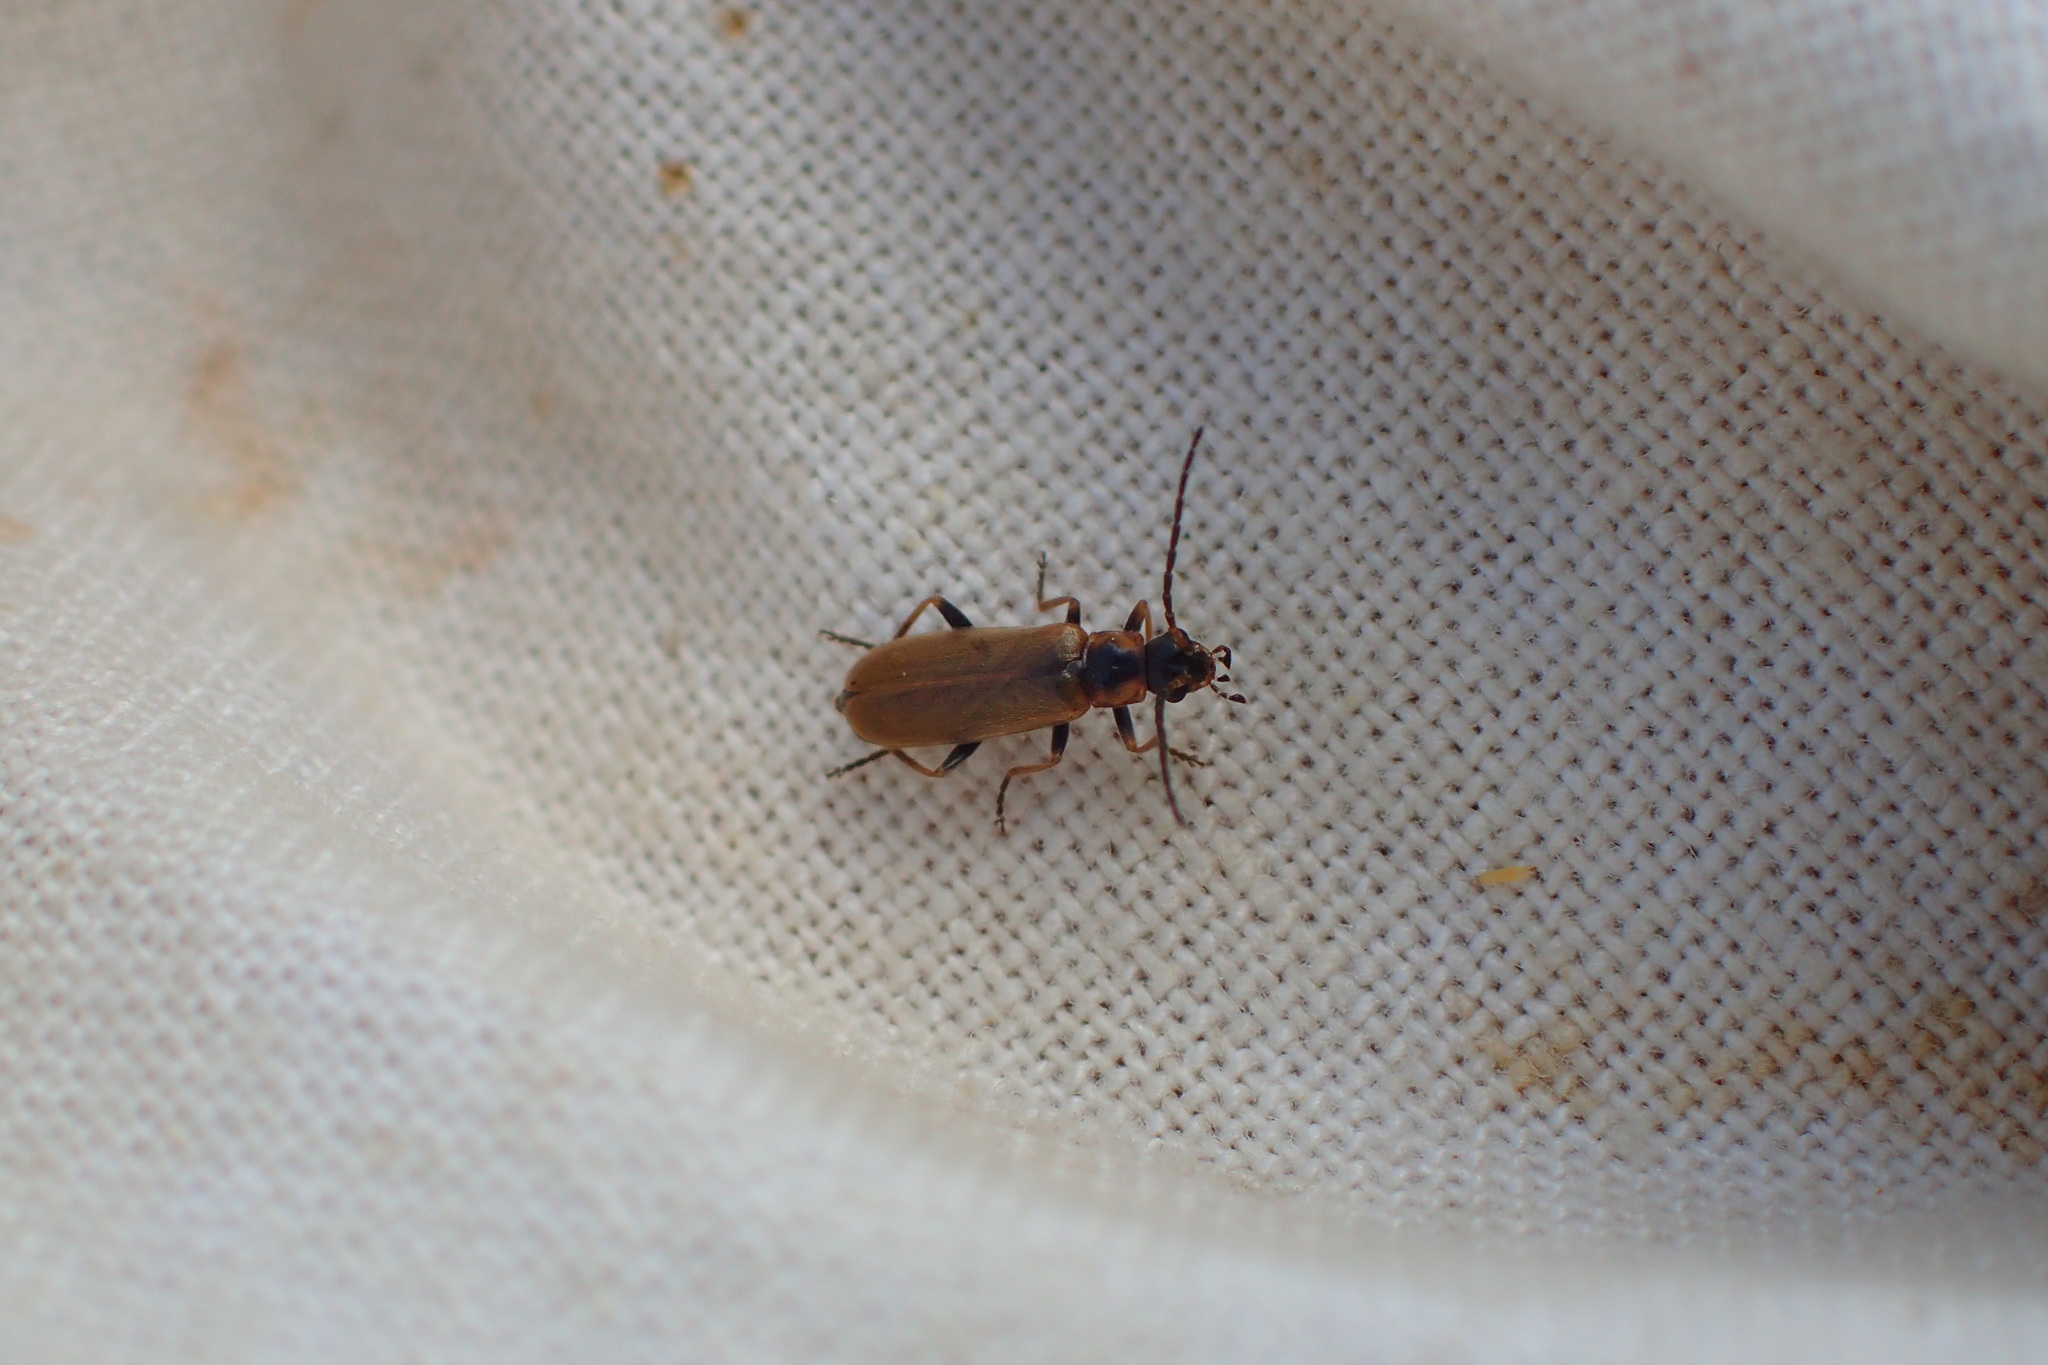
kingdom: Animalia
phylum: Arthropoda
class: Insecta
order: Coleoptera
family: Cantharidae
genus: Rhagonycha
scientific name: Rhagonycha nigriventris
